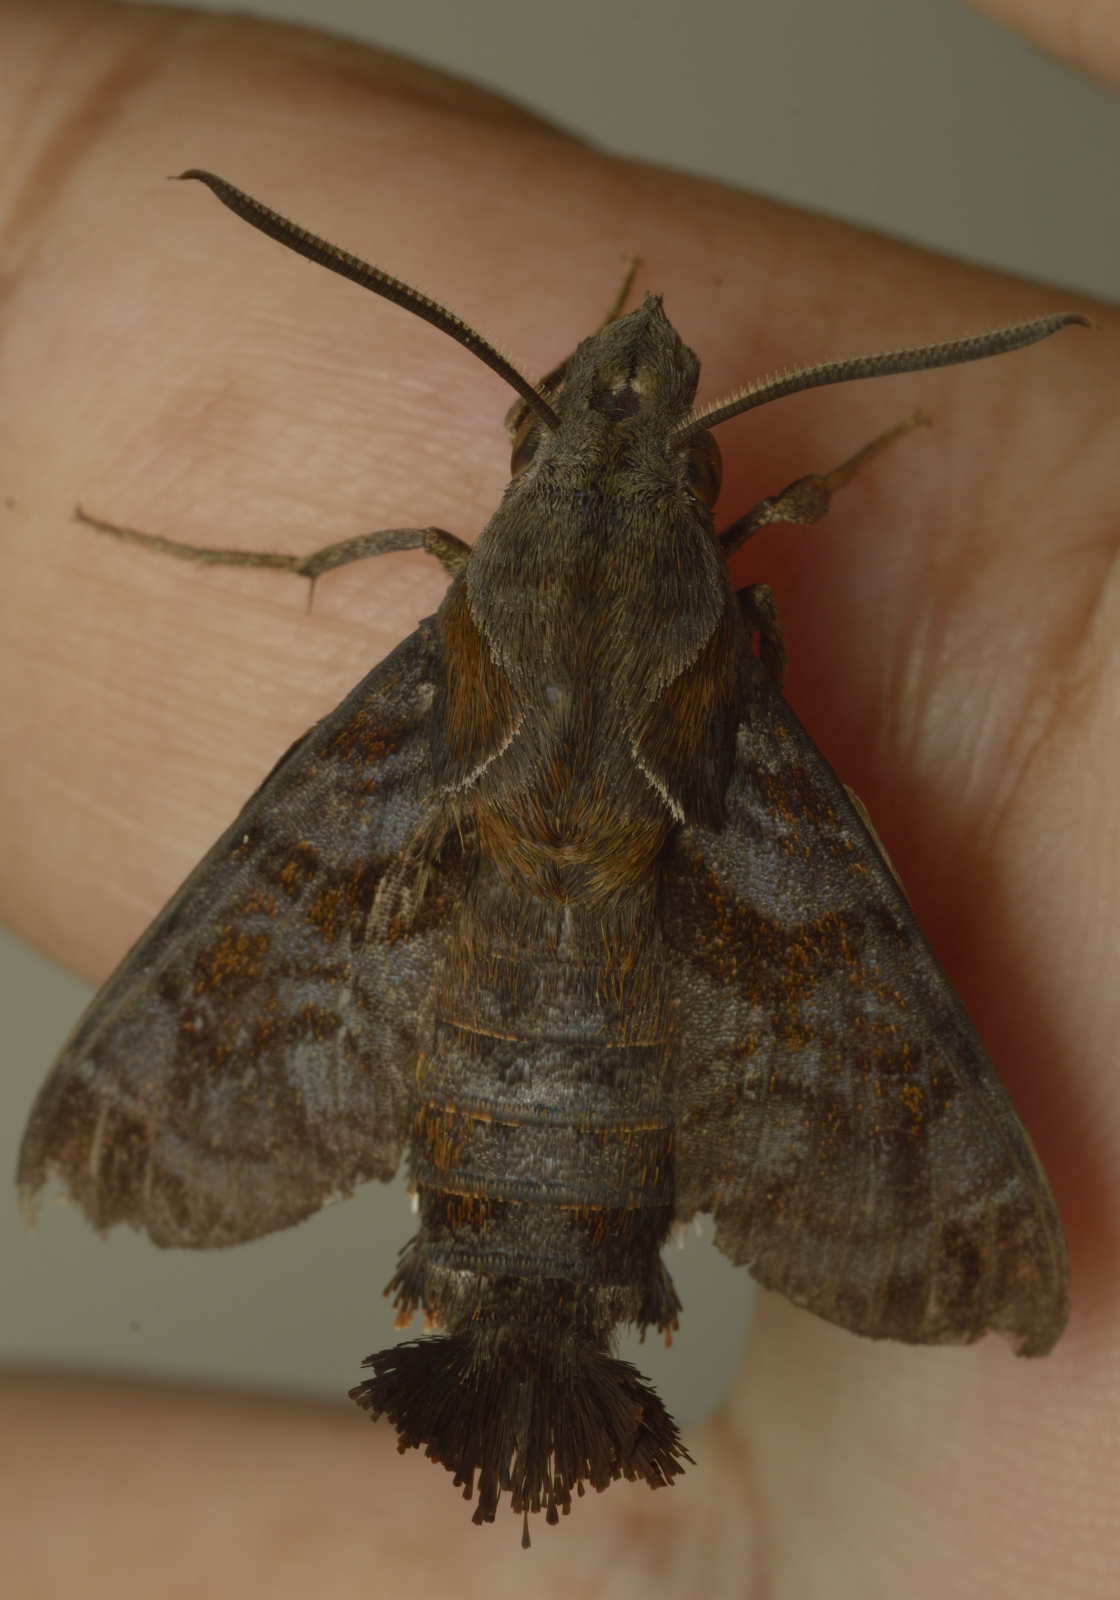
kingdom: Animalia
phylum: Arthropoda
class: Insecta
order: Lepidoptera
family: Sphingidae
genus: Macroglossum
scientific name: Macroglossum gyrans
